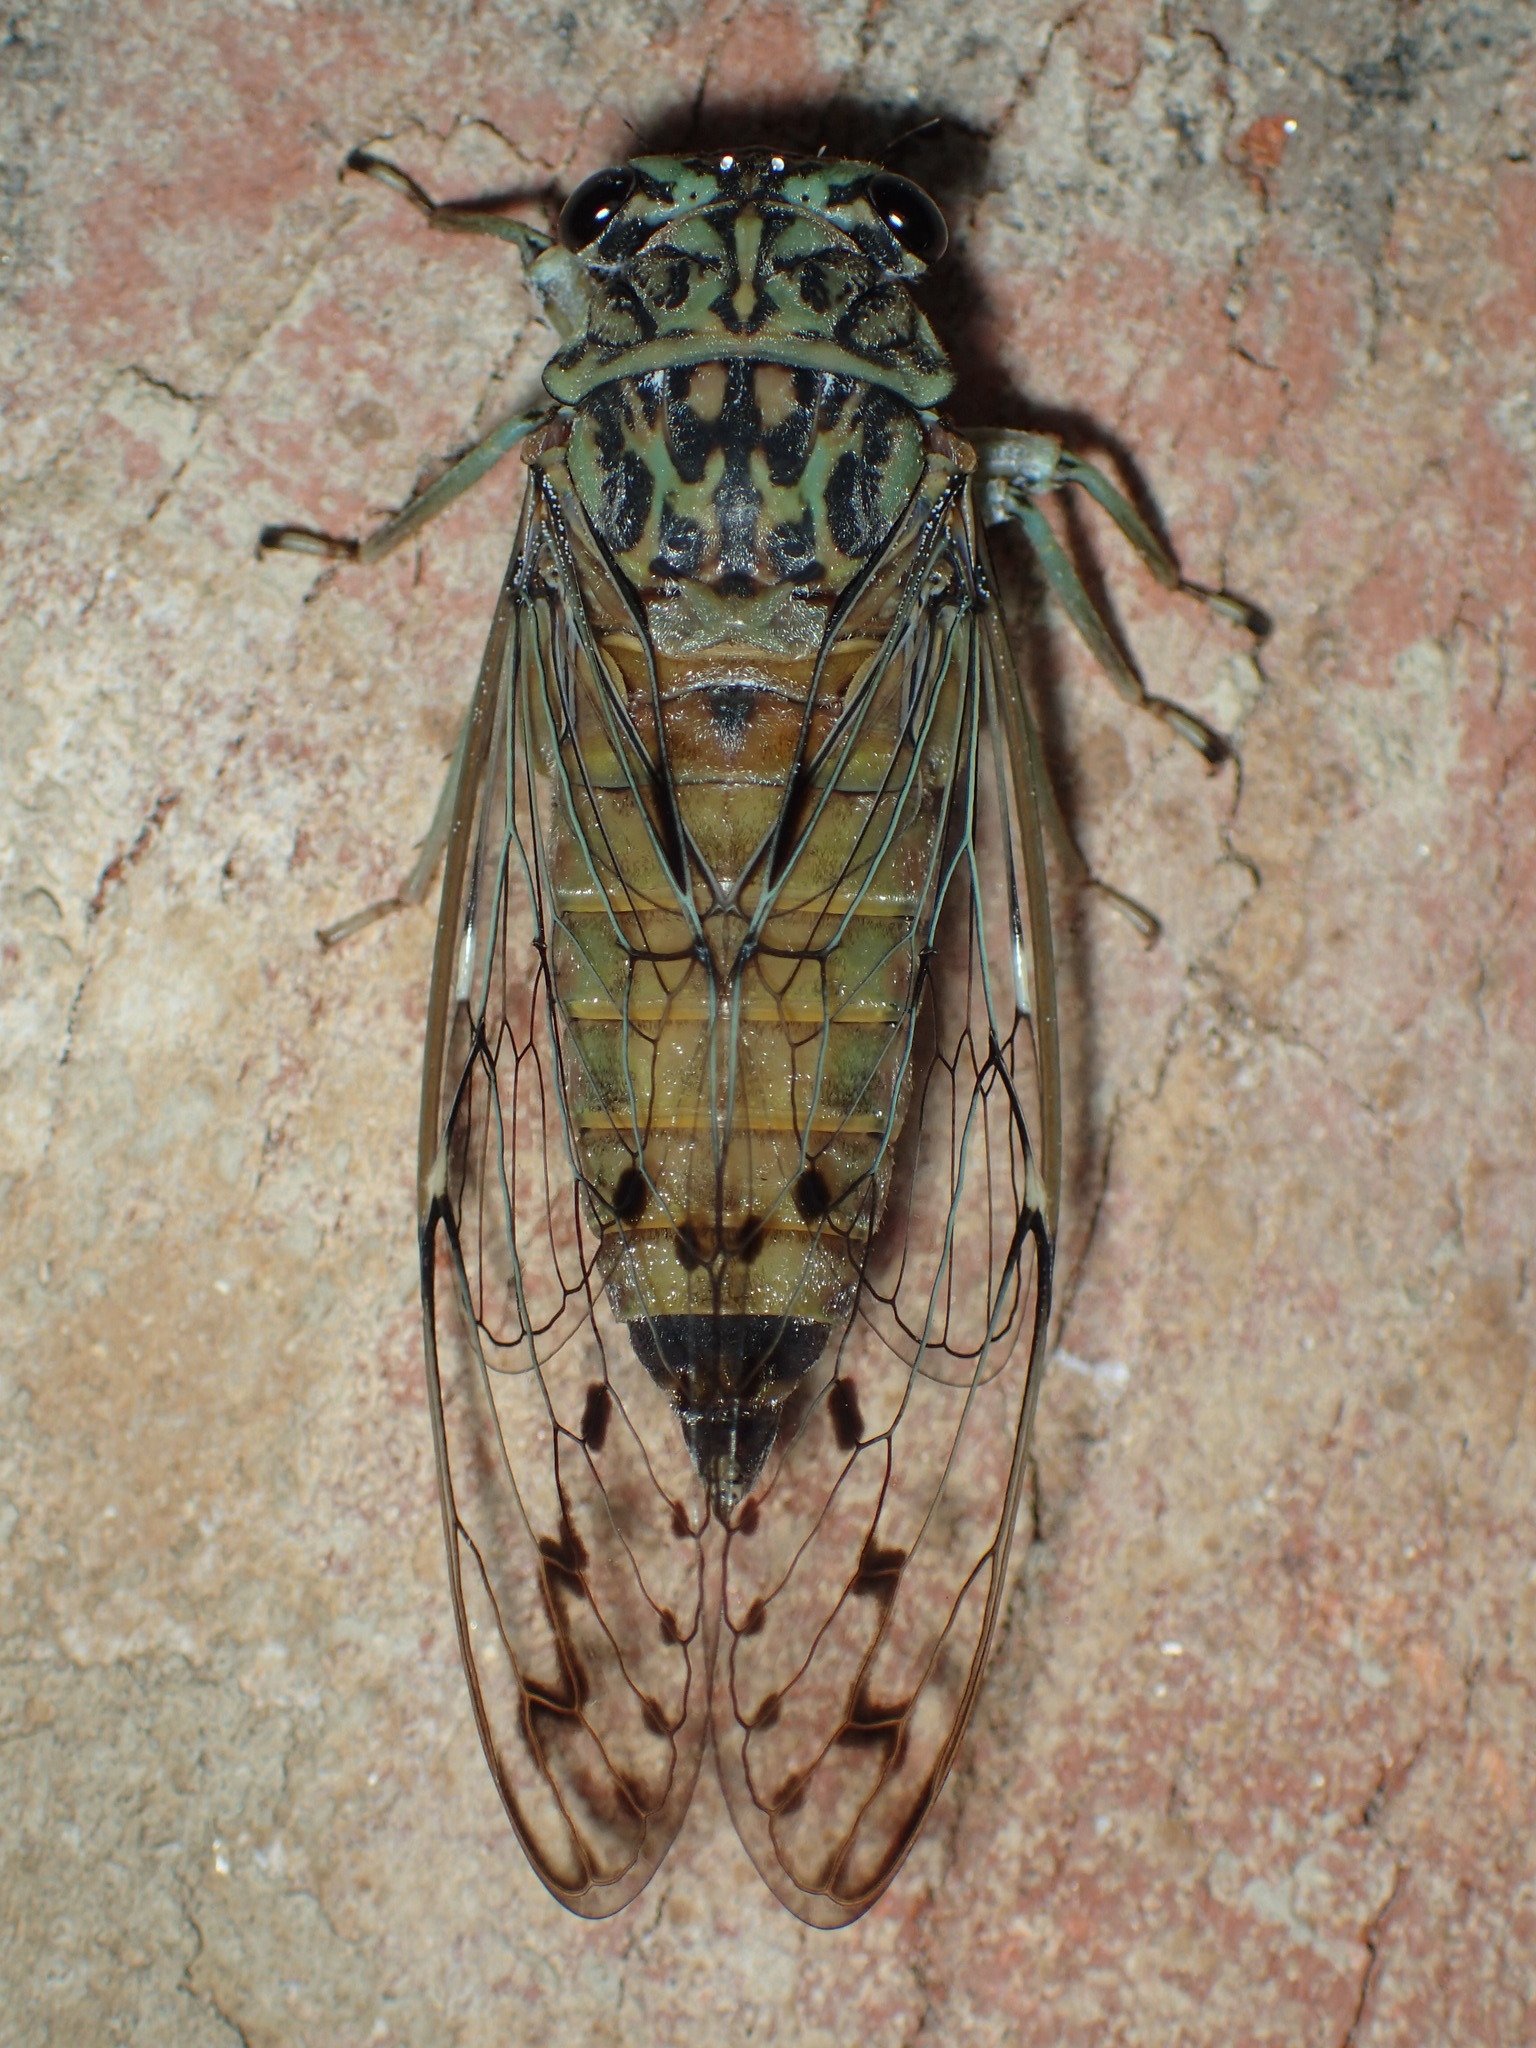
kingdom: Animalia
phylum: Arthropoda
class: Insecta
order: Hemiptera
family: Cicadidae
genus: Neocicada
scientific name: Neocicada hieroglyphica
